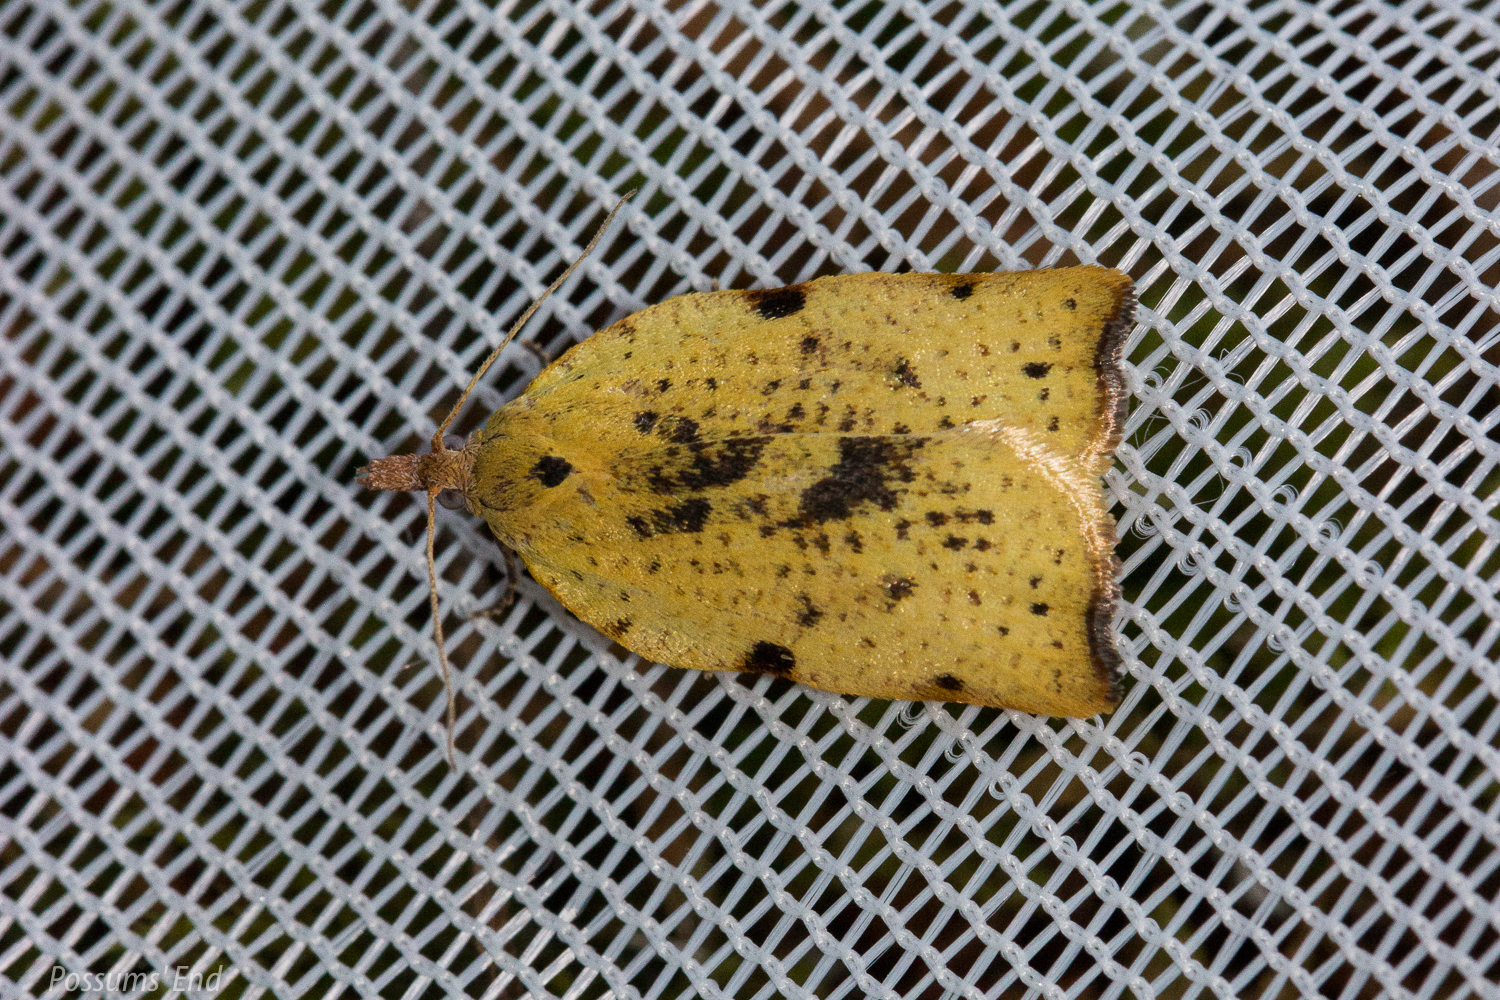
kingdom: Animalia
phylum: Arthropoda
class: Insecta
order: Lepidoptera
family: Tortricidae
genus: Apoctena
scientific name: Apoctena flavescens
